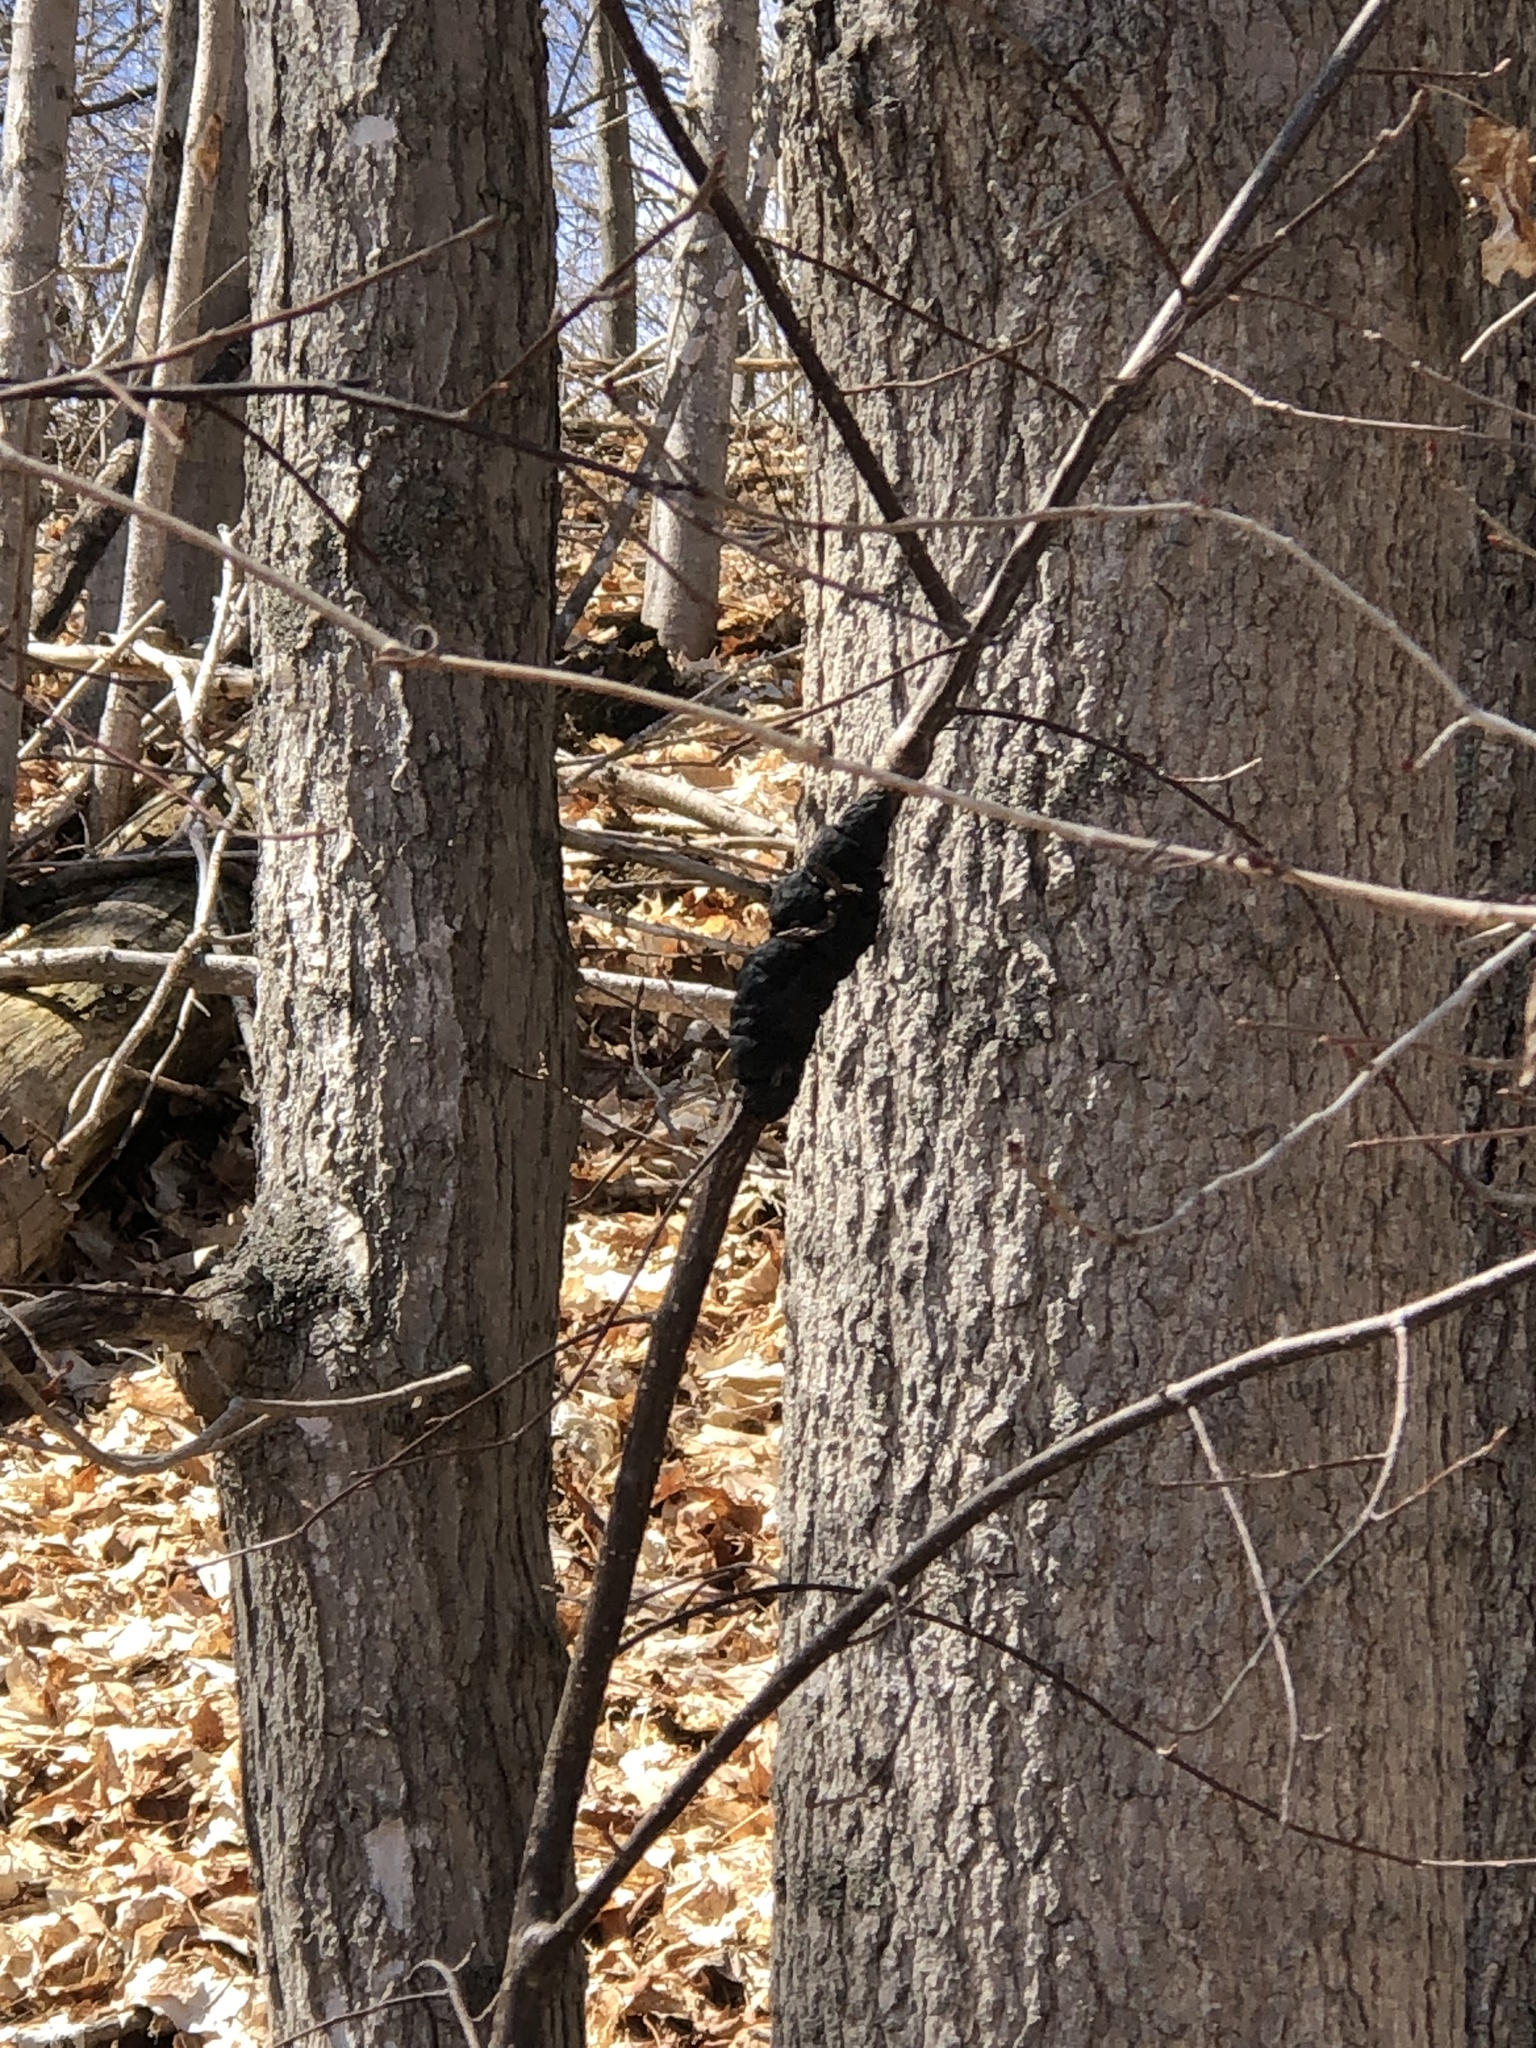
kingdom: Fungi
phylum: Ascomycota
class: Dothideomycetes
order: Venturiales
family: Venturiaceae
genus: Apiosporina
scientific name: Apiosporina morbosa
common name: Black knot
